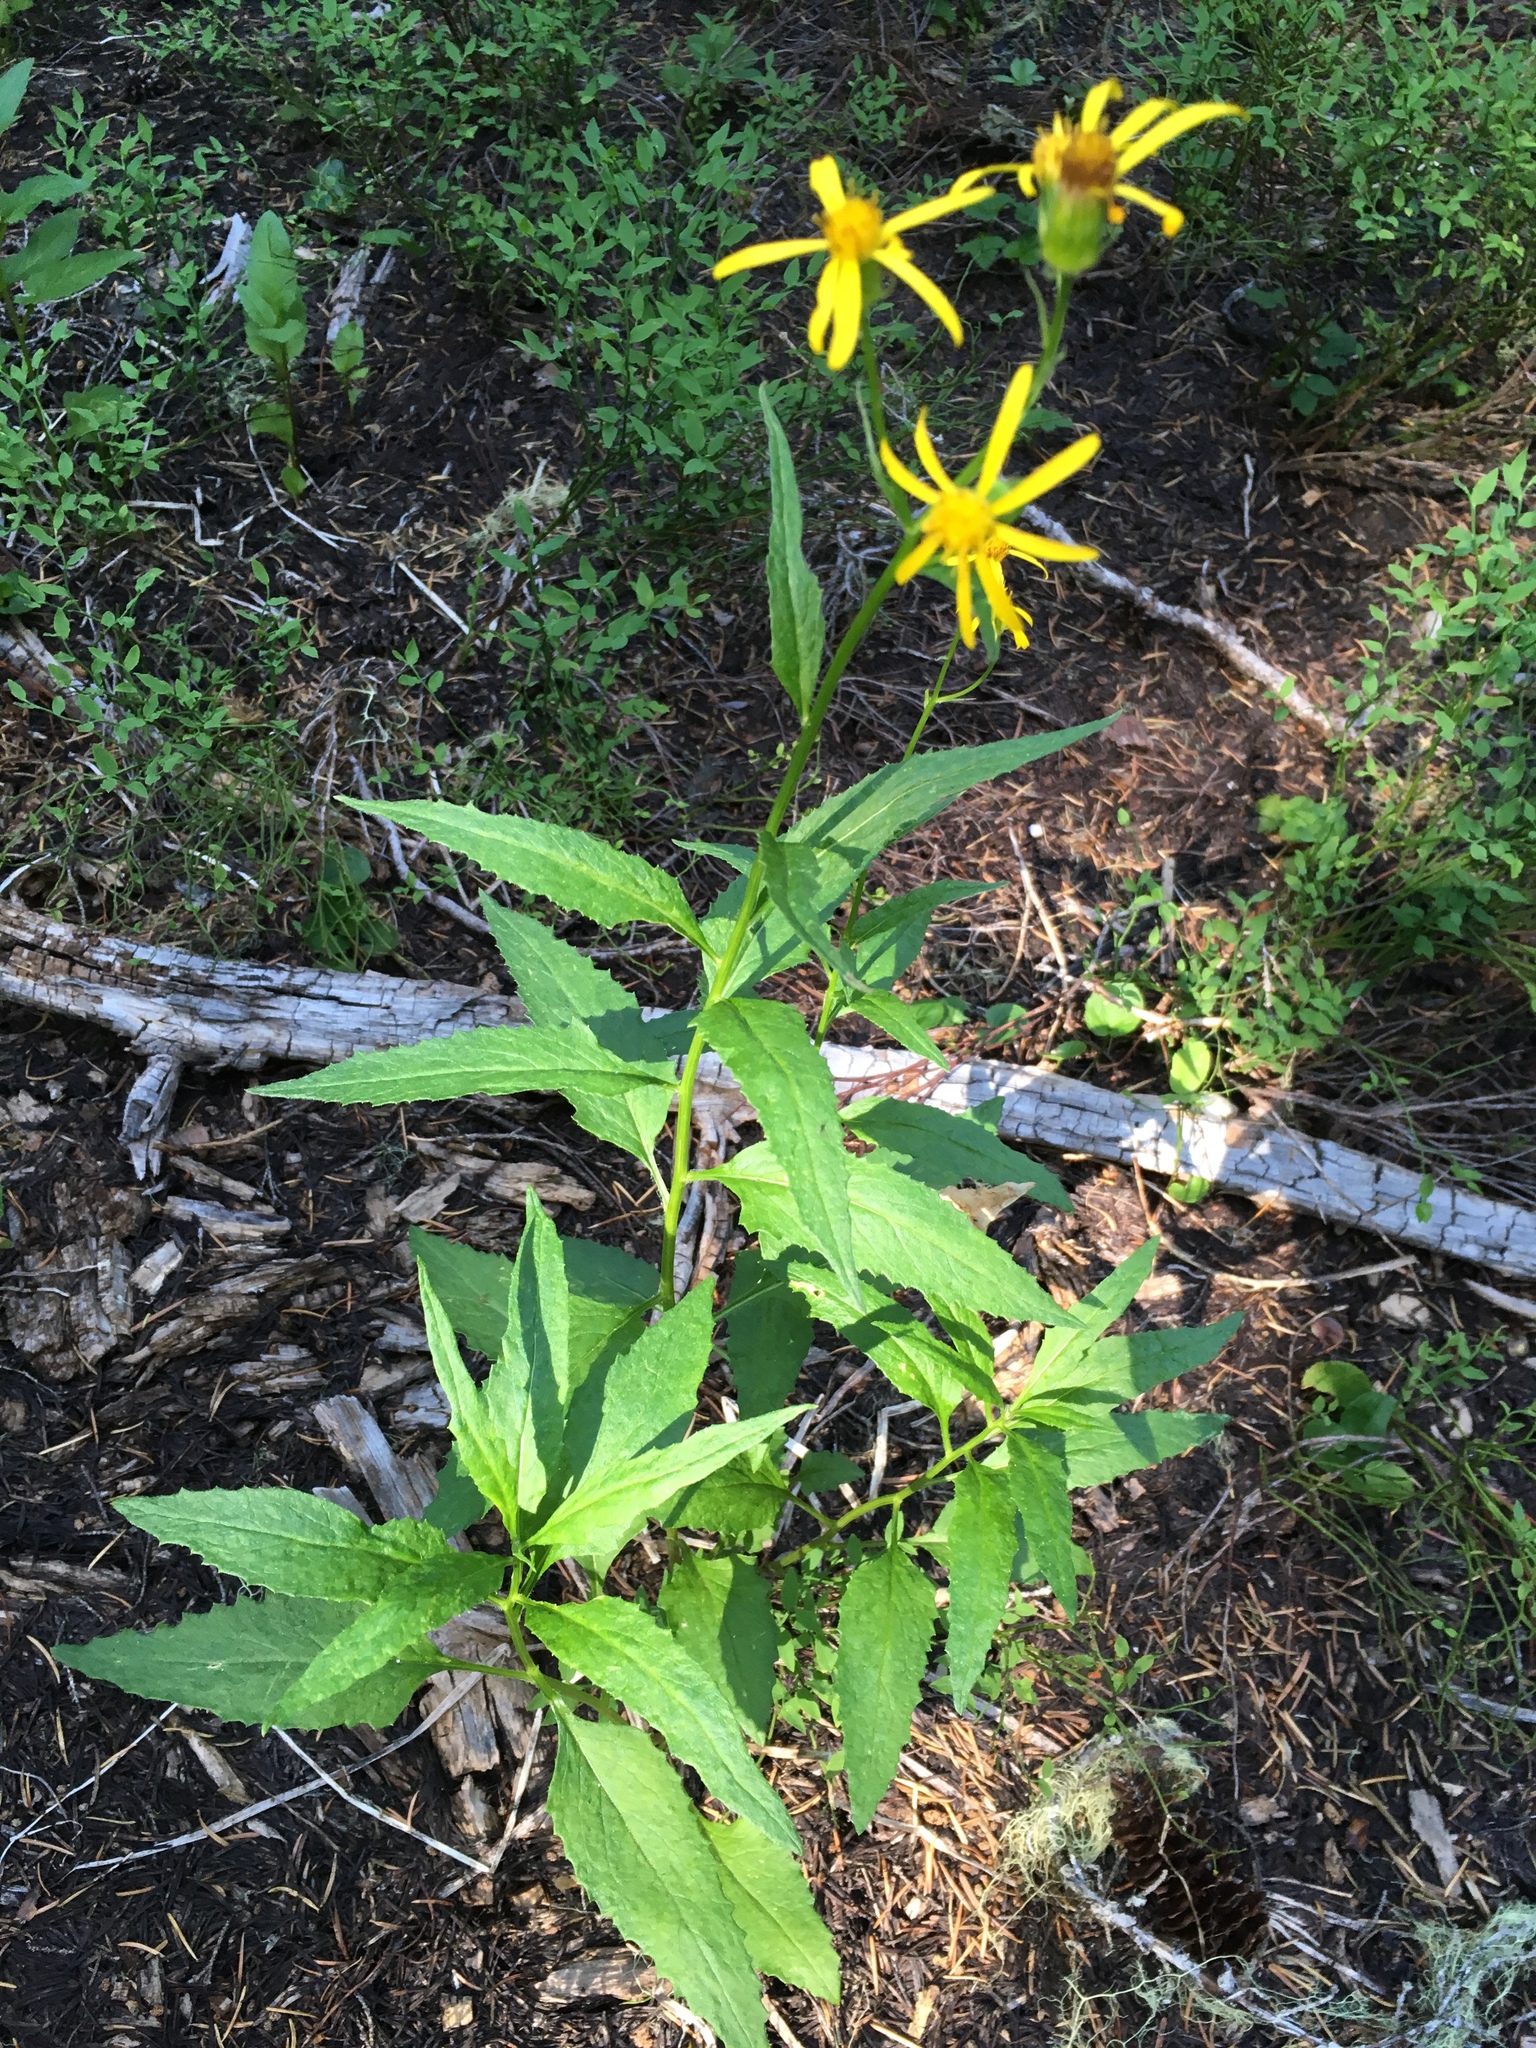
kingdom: Plantae
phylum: Tracheophyta
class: Magnoliopsida
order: Asterales
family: Asteraceae
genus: Senecio
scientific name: Senecio triangularis
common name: Arrowleaf butterweed
